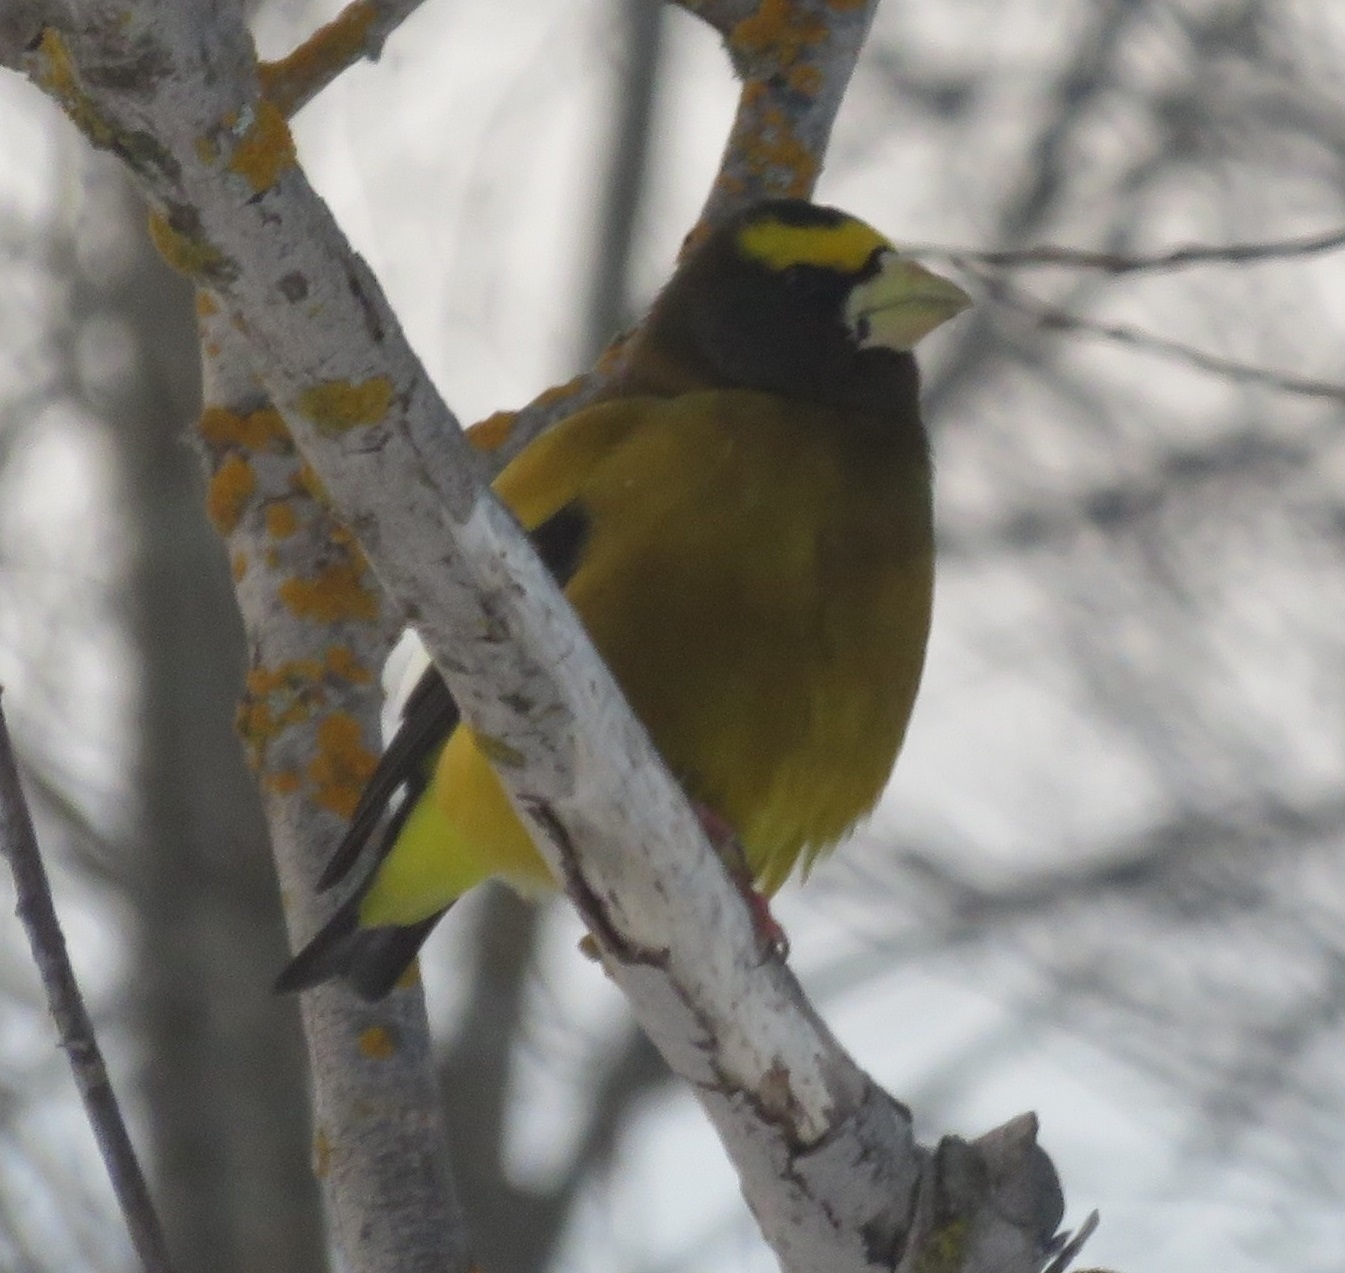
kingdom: Animalia
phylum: Chordata
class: Aves
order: Passeriformes
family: Fringillidae
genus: Hesperiphona
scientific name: Hesperiphona vespertina
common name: Evening grosbeak
